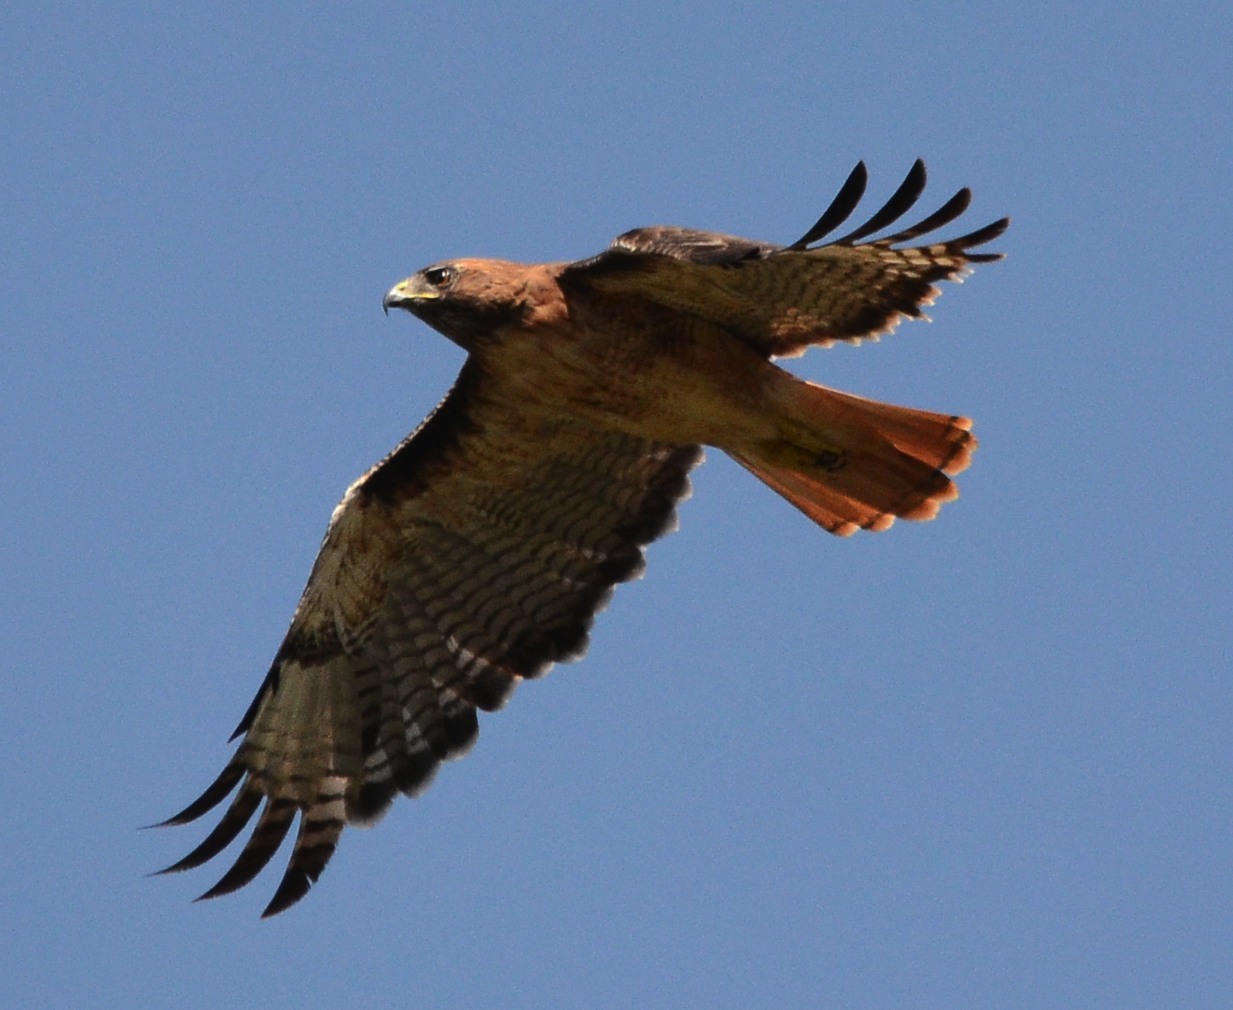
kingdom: Animalia
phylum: Chordata
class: Aves
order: Accipitriformes
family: Accipitridae
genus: Buteo
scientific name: Buteo jamaicensis
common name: Red-tailed hawk
